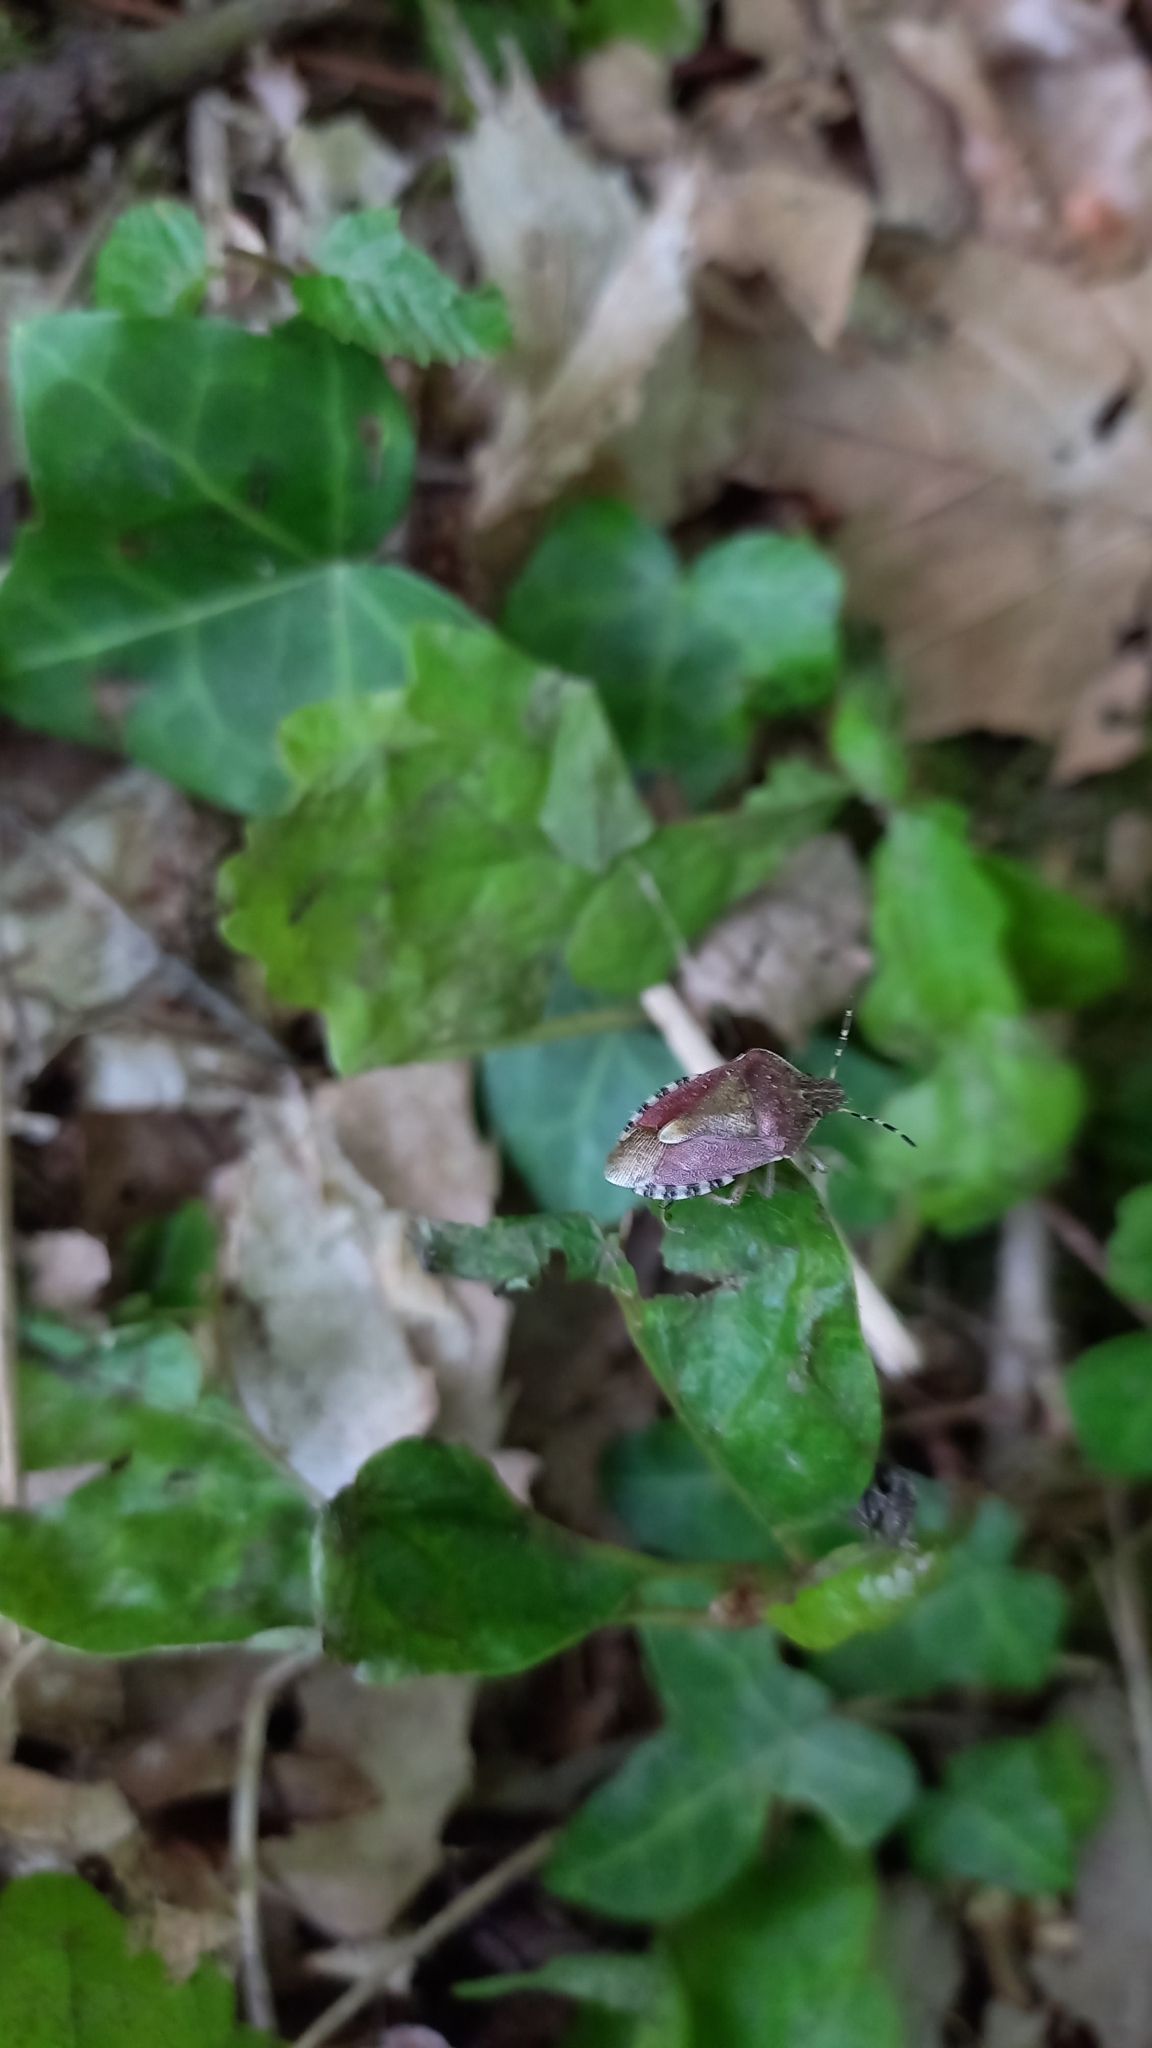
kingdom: Animalia
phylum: Arthropoda
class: Insecta
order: Hemiptera
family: Pentatomidae
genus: Dolycoris
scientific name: Dolycoris baccarum
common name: Sloe bug
